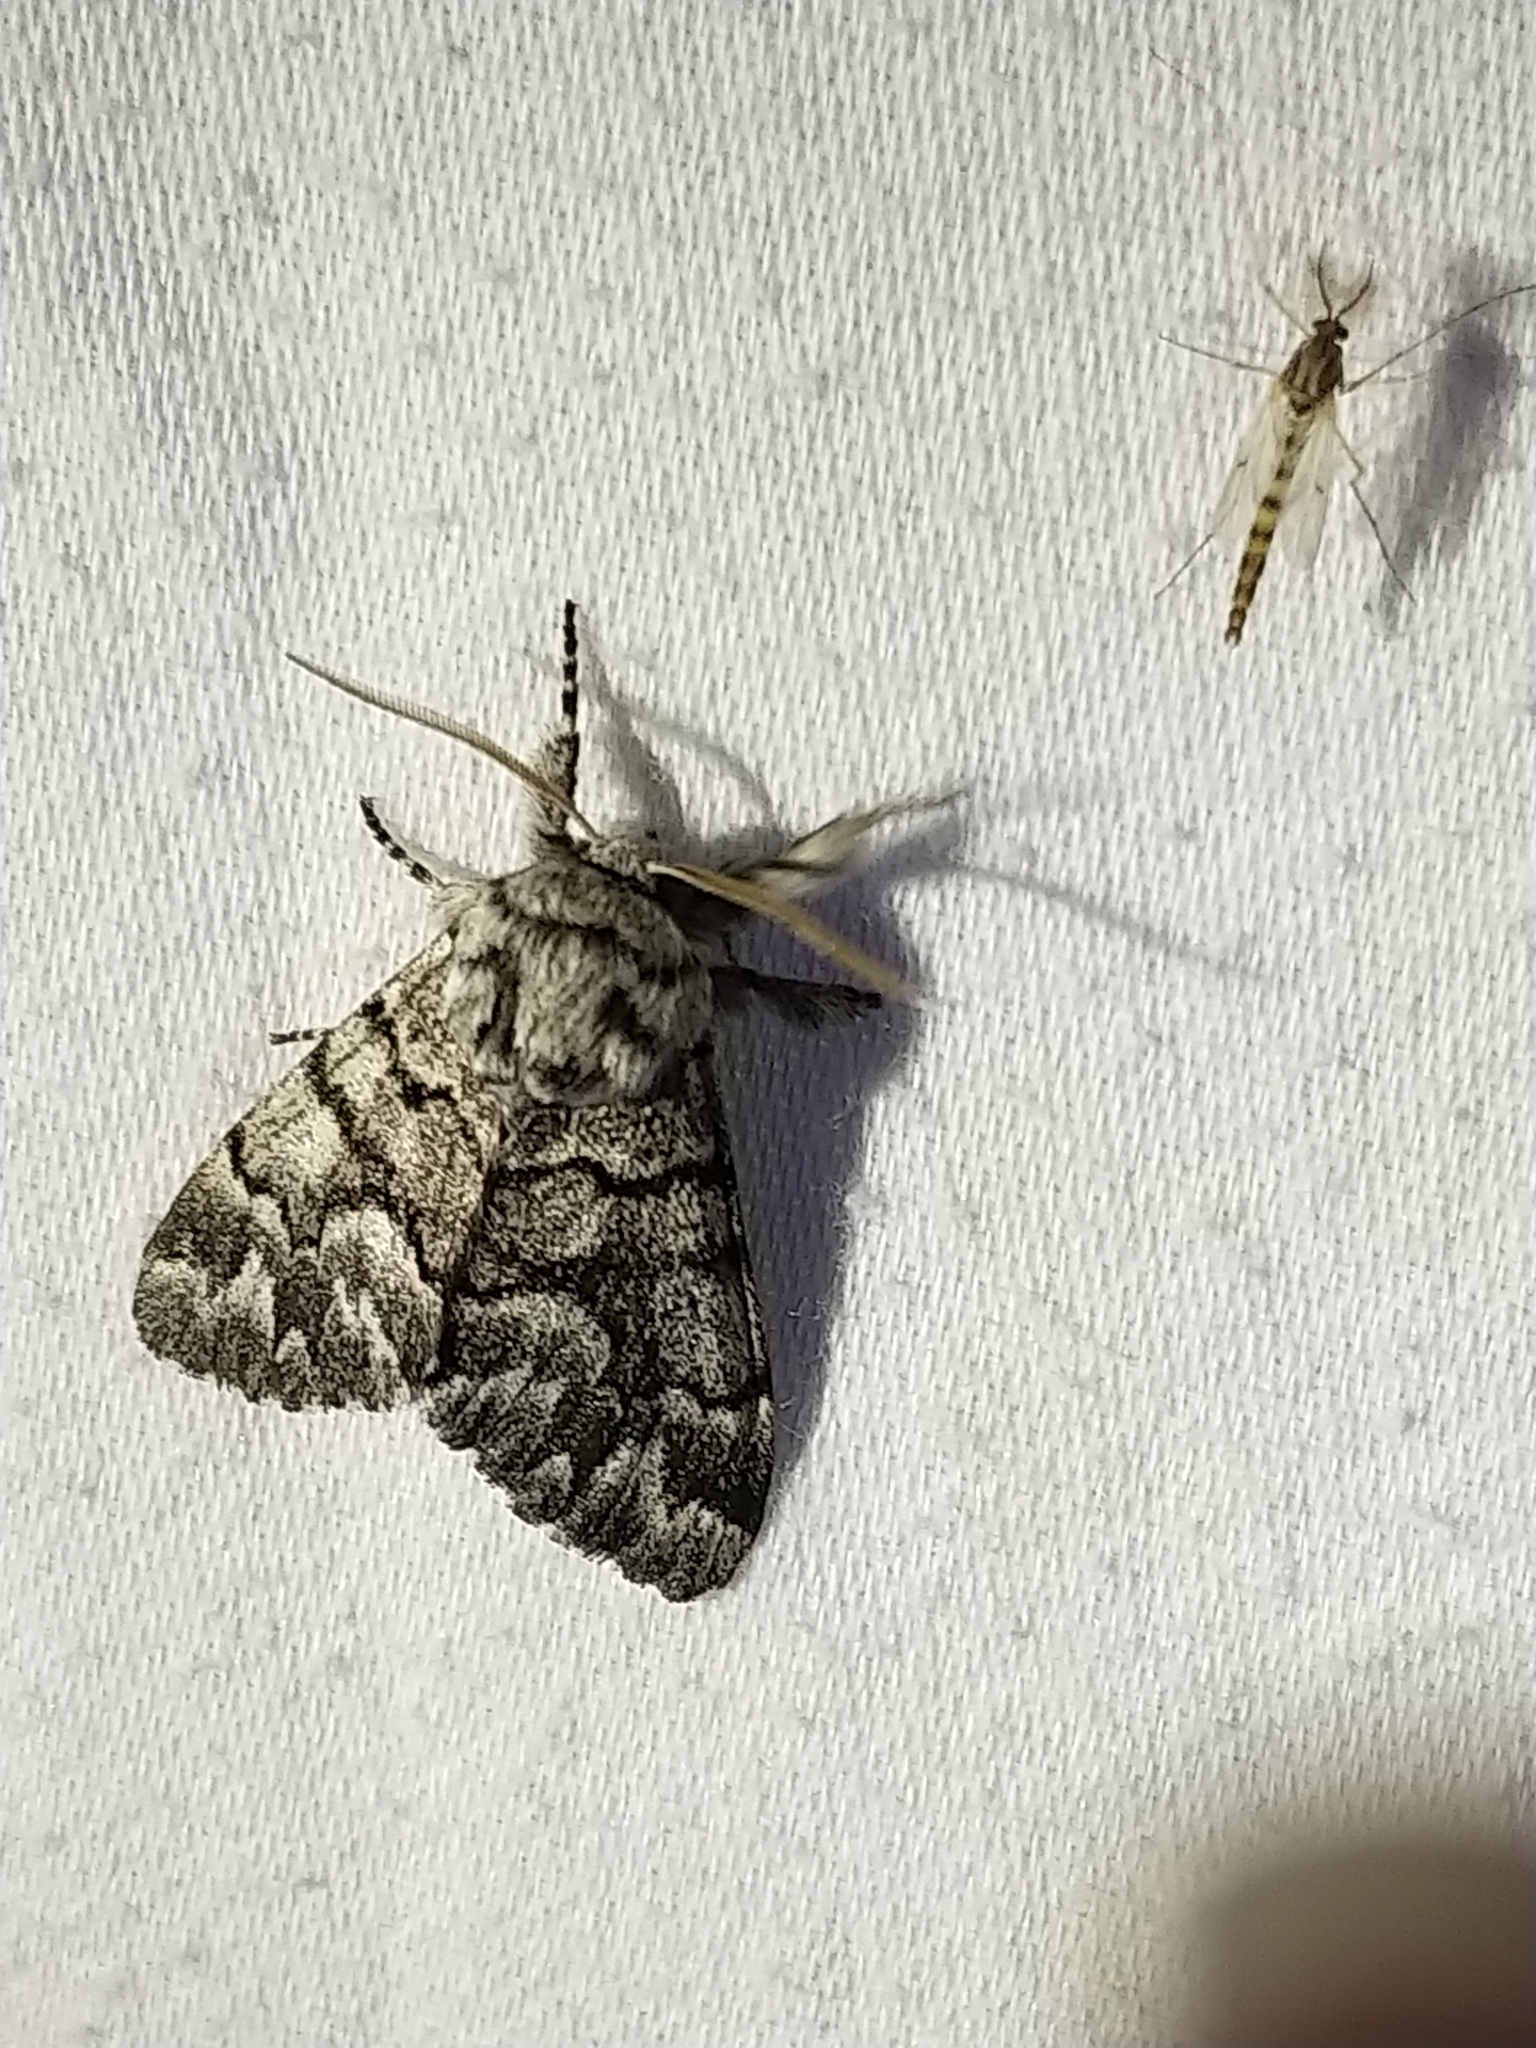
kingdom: Animalia
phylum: Arthropoda
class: Insecta
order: Lepidoptera
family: Noctuidae
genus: Panthea
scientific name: Panthea furcilla
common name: Eastern panthea moth
